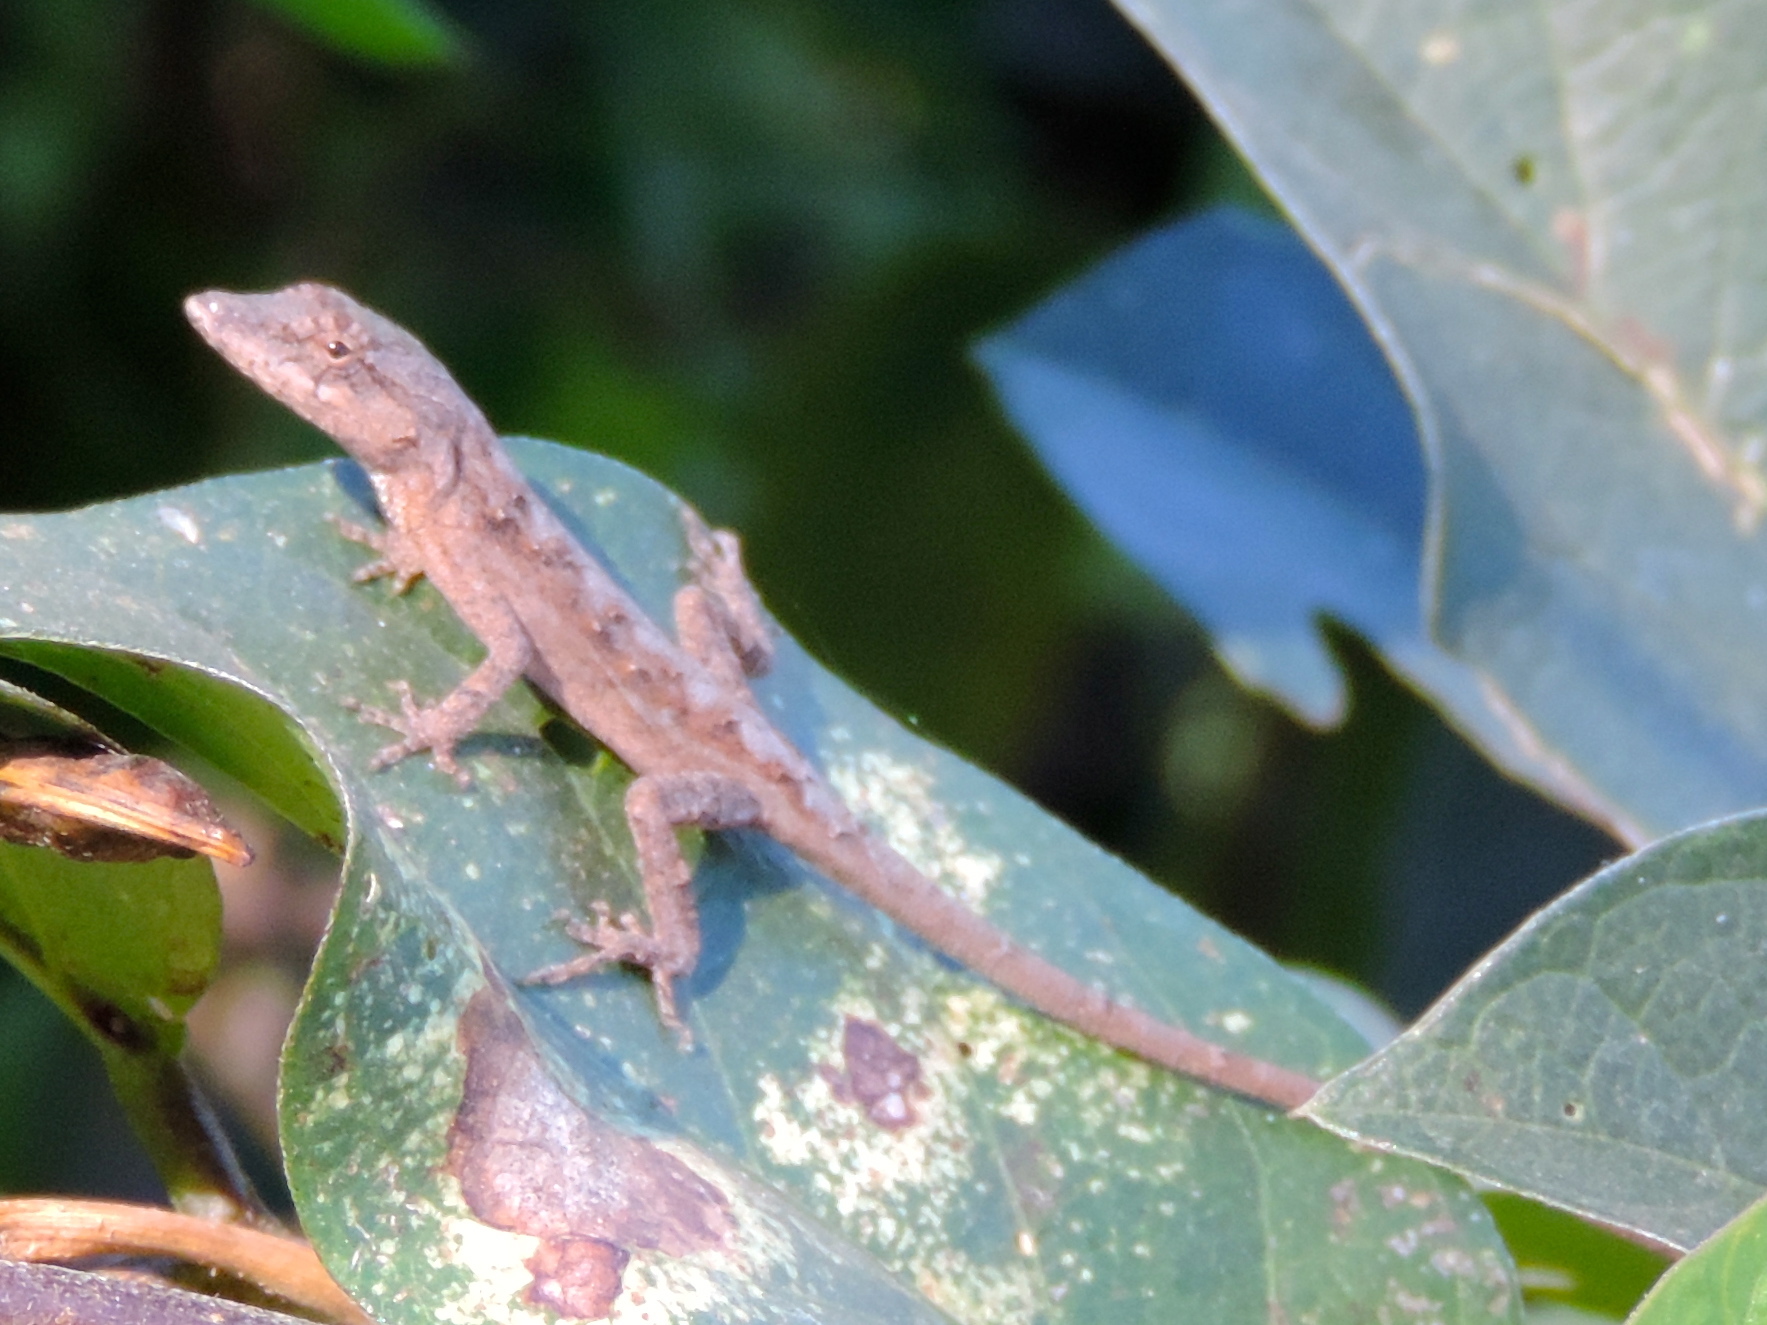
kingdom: Animalia
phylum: Chordata
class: Squamata
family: Dactyloidae
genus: Anolis
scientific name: Anolis nebulosus
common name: Clouded anole
